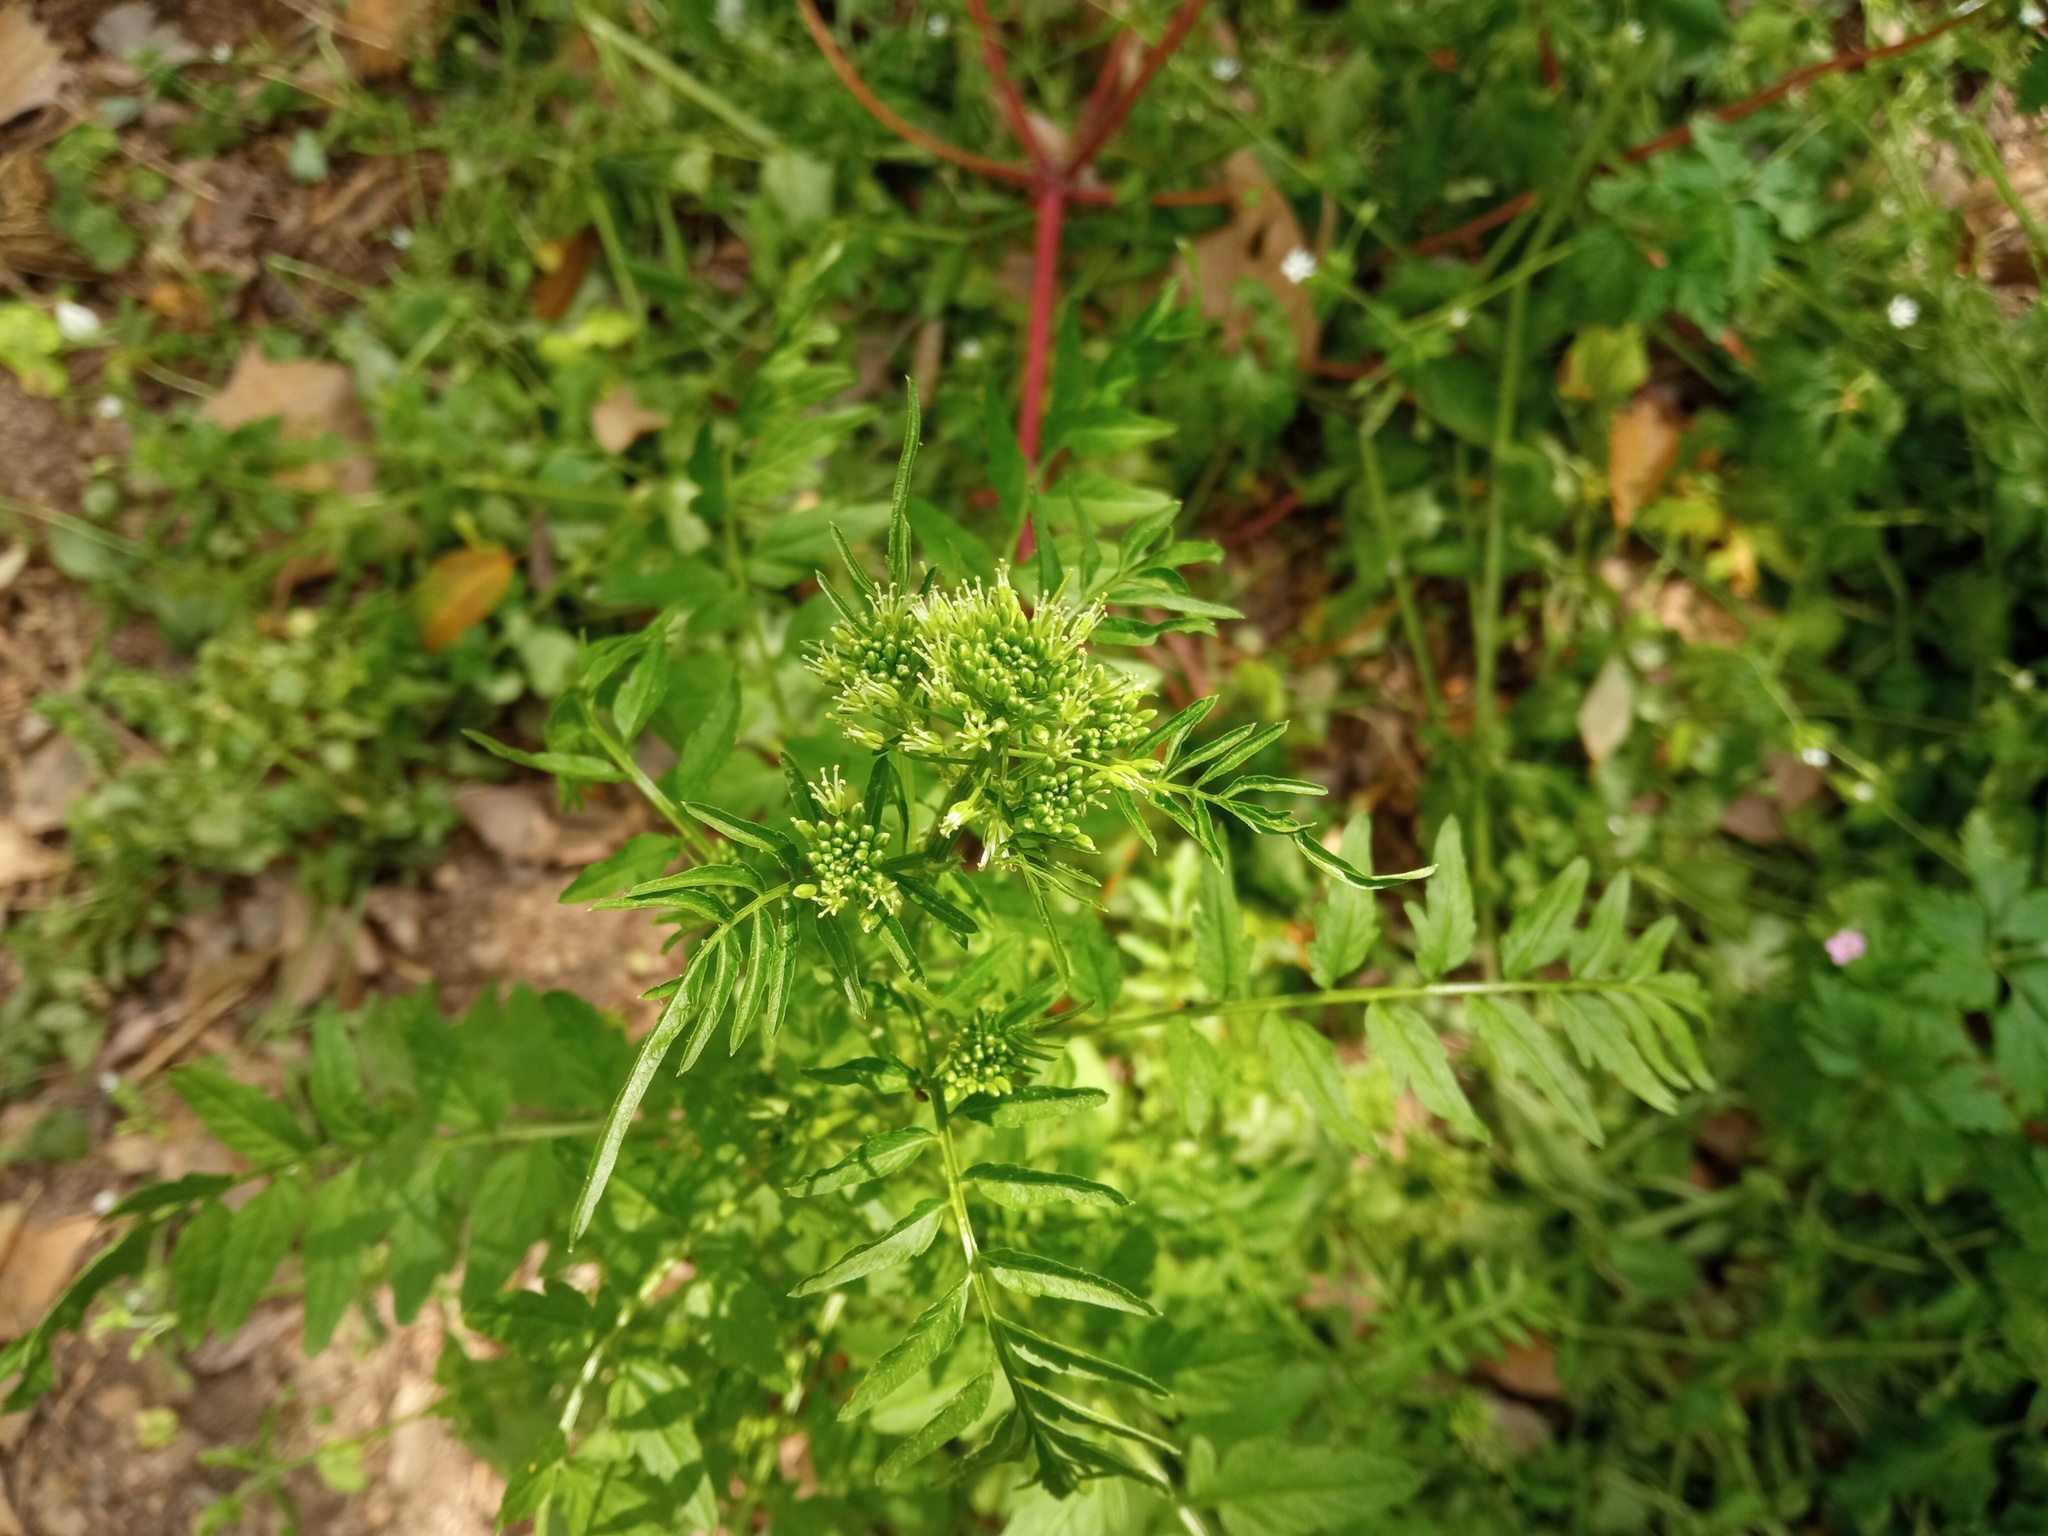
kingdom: Plantae
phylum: Tracheophyta
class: Magnoliopsida
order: Brassicales
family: Brassicaceae
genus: Cardamine
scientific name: Cardamine impatiens
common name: Narrow-leaved bitter-cress
